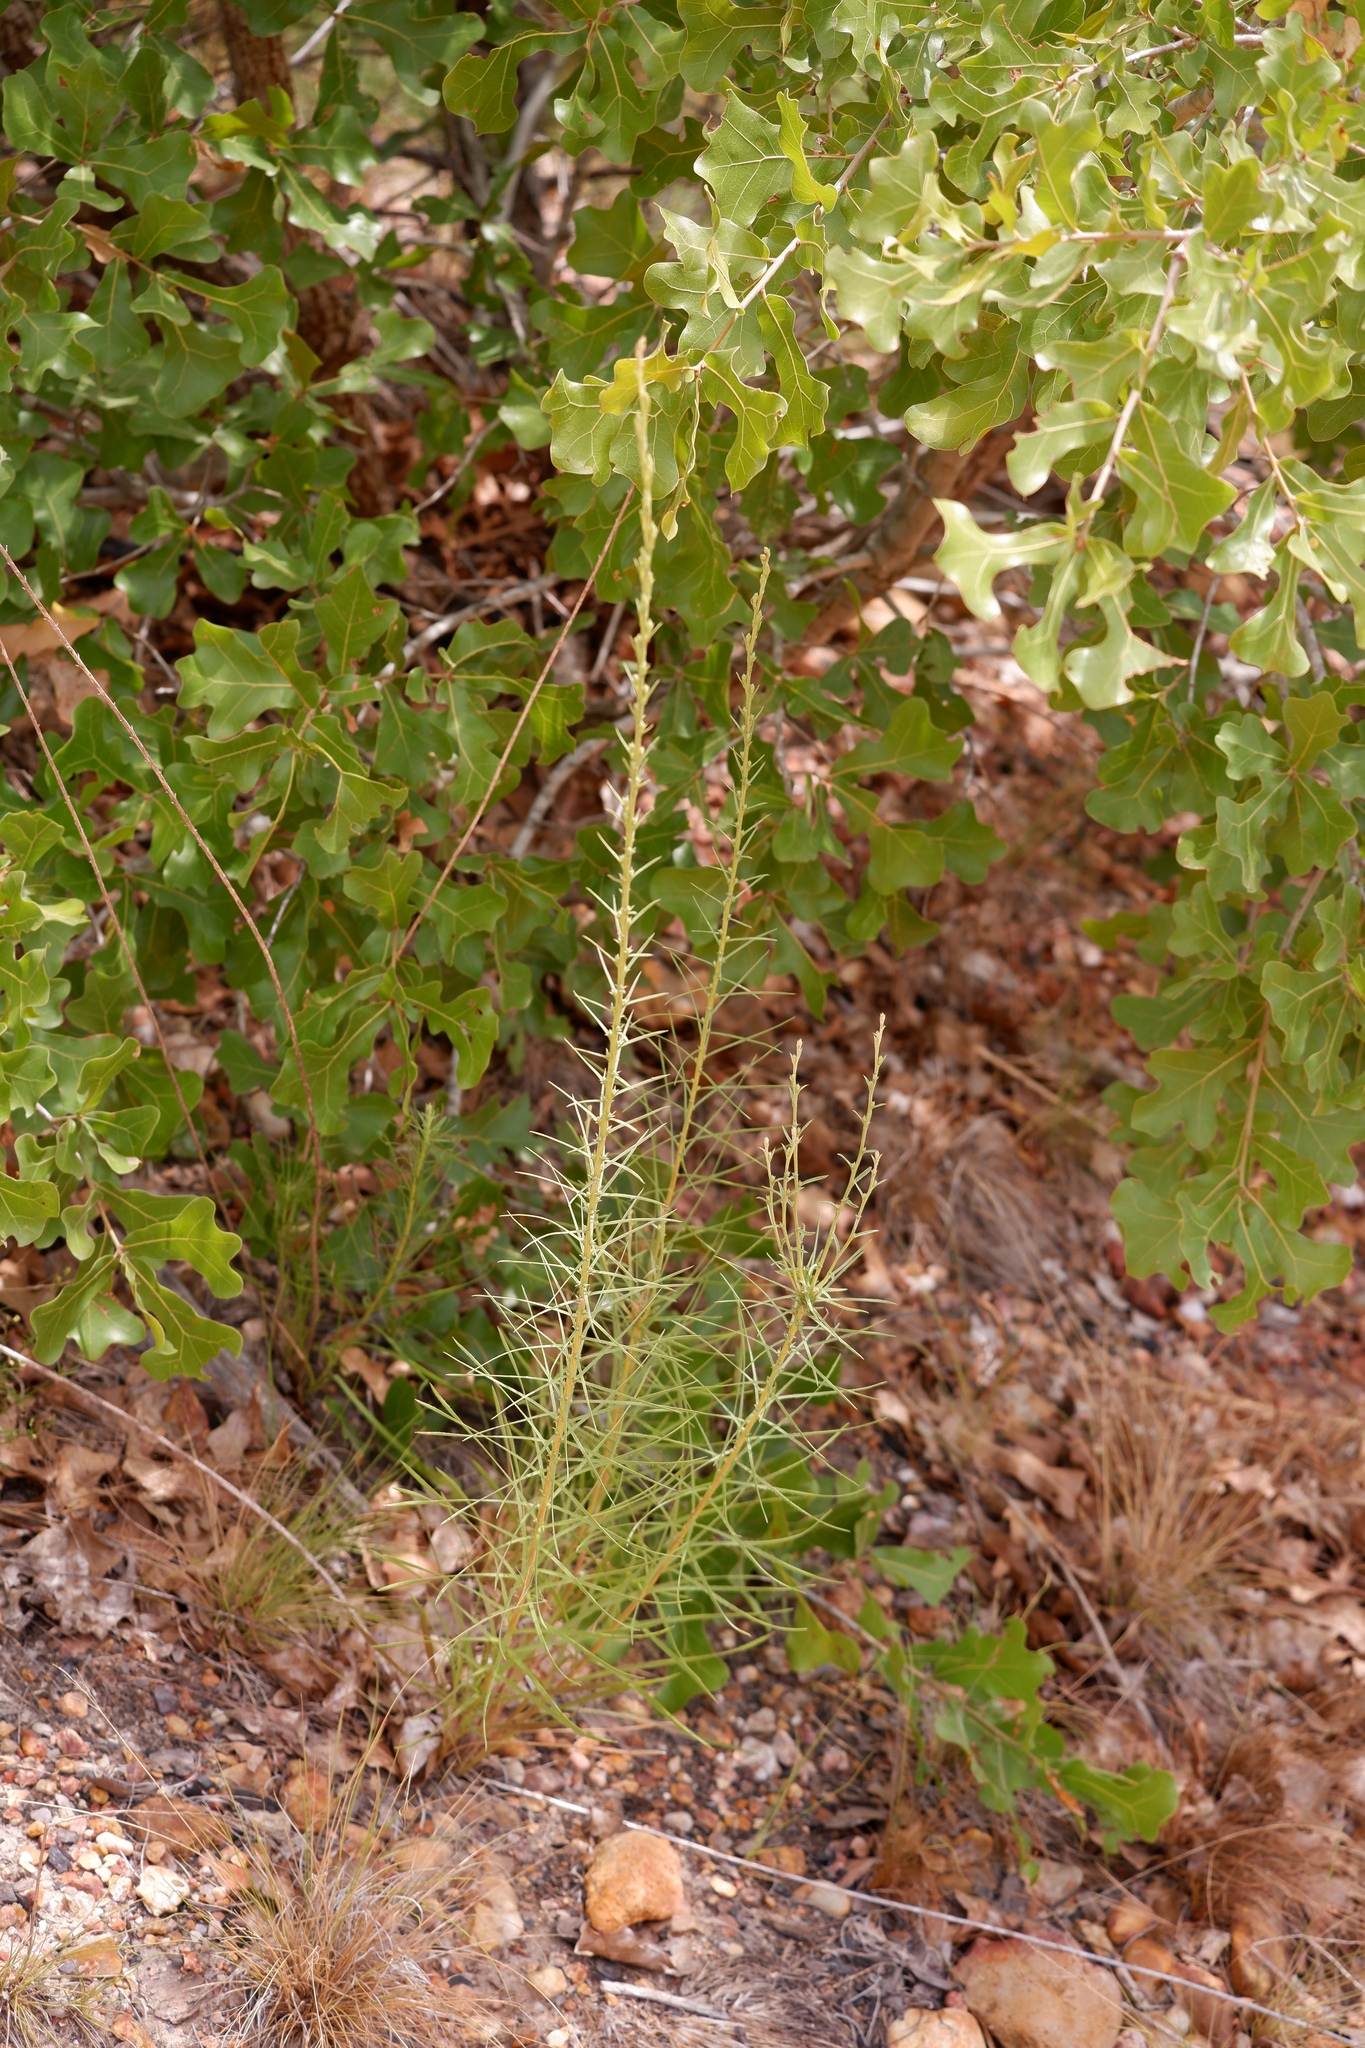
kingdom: Plantae
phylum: Tracheophyta
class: Magnoliopsida
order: Asterales
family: Asteraceae
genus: Liatris
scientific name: Liatris punctata
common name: Dotted gayfeather
